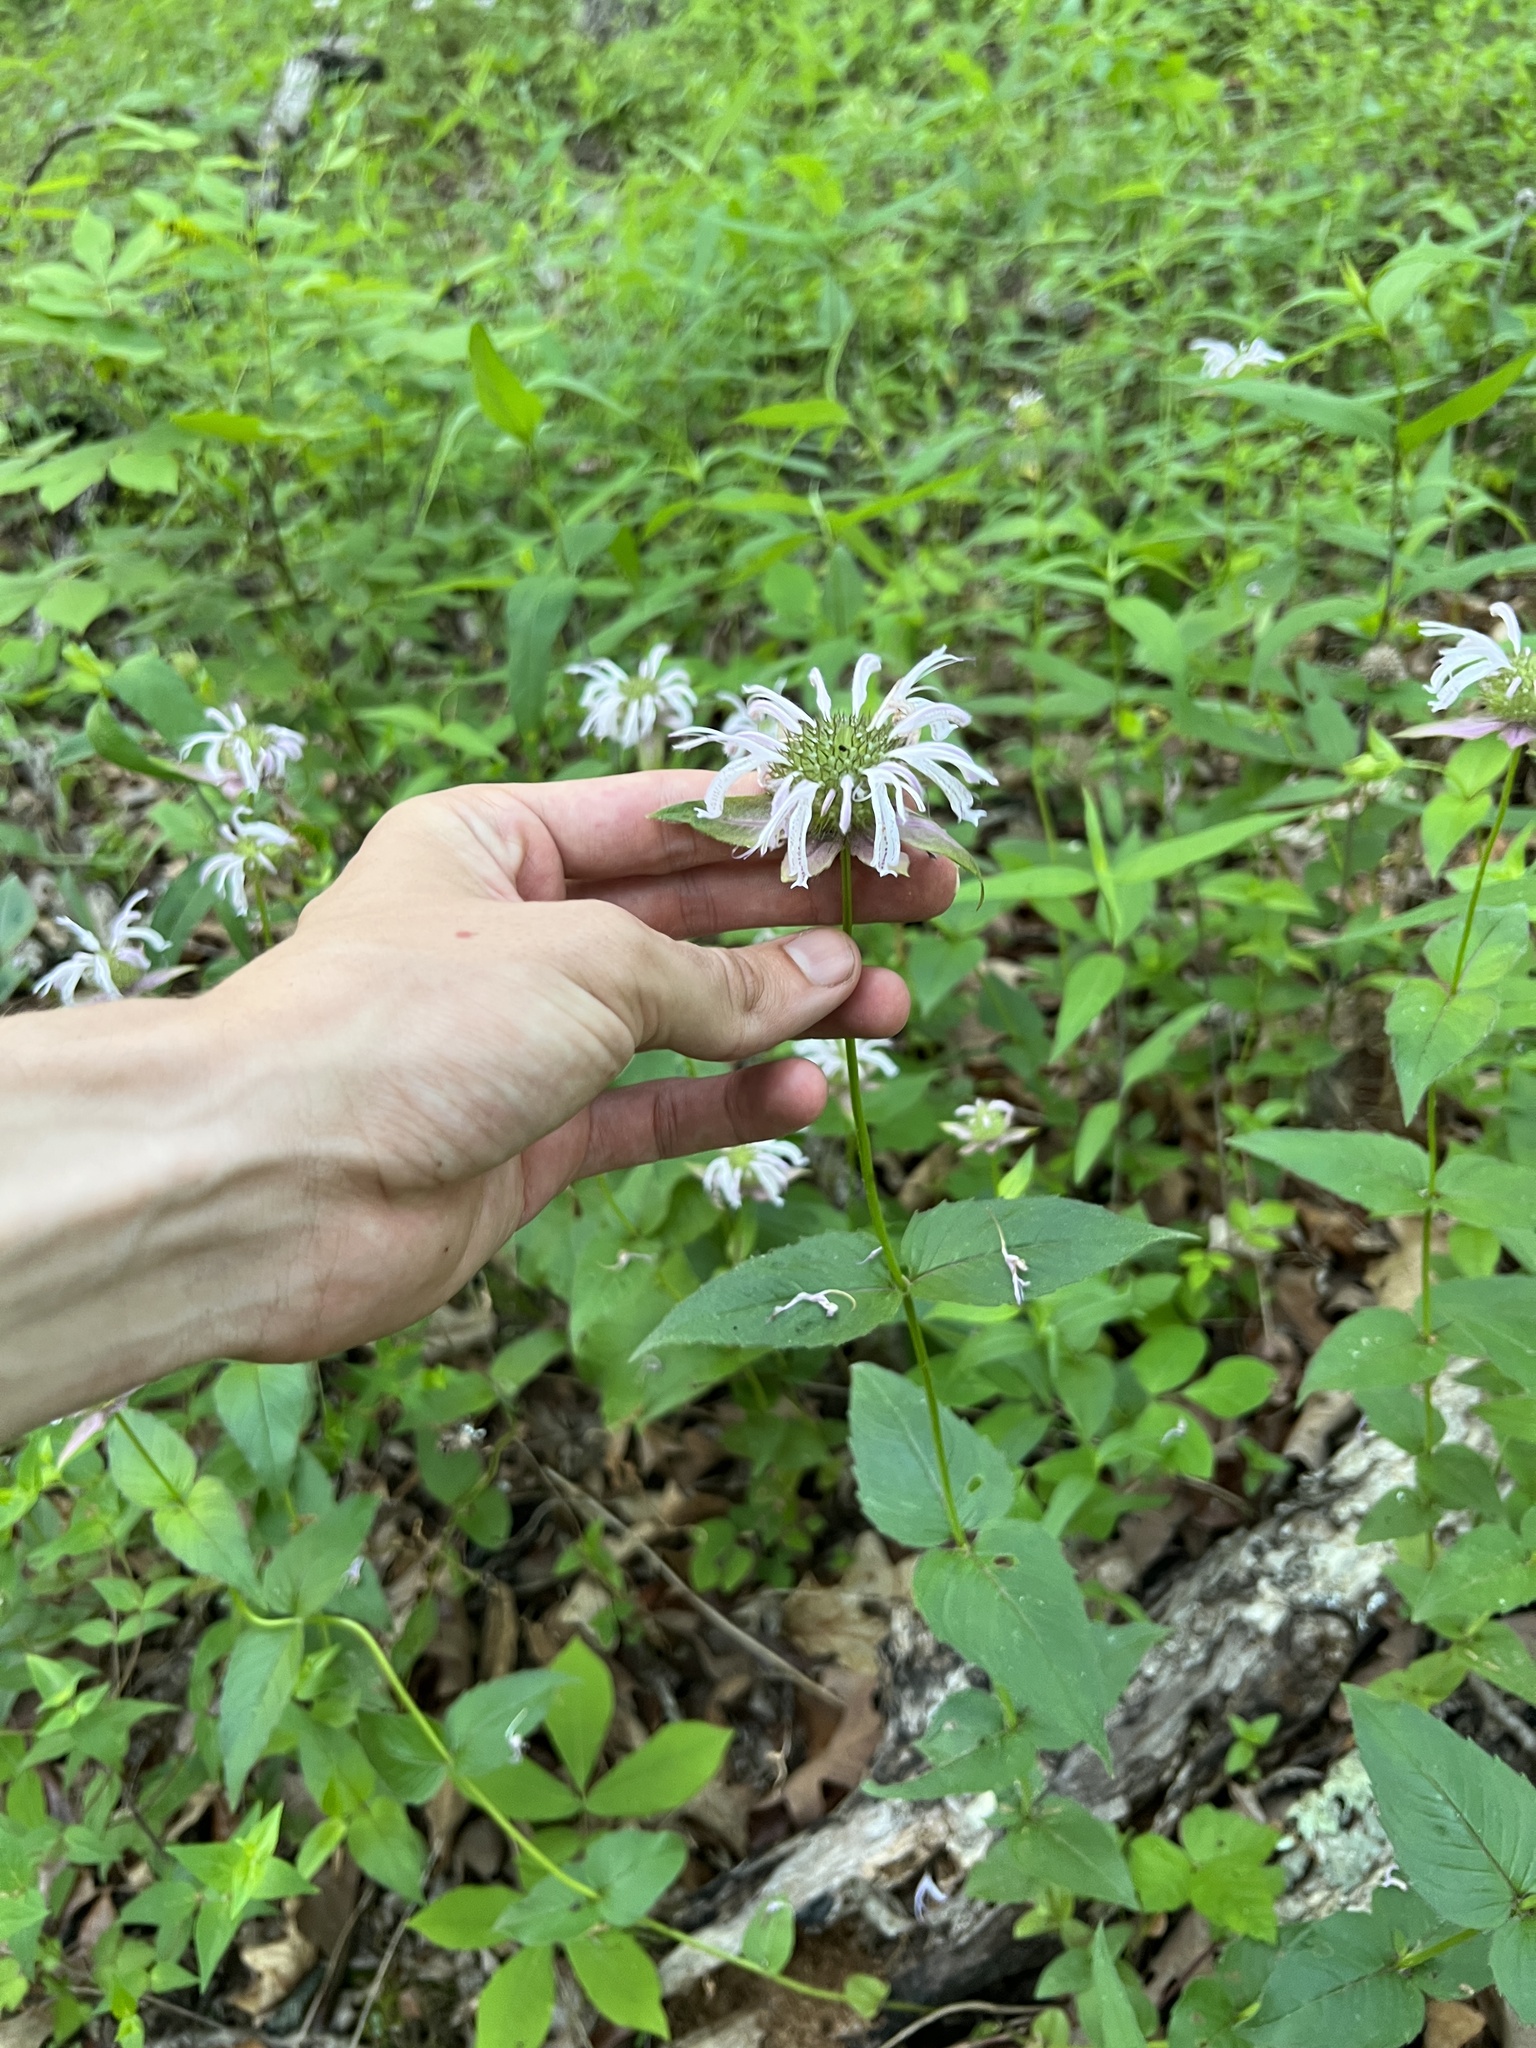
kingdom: Plantae
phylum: Tracheophyta
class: Magnoliopsida
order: Lamiales
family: Lamiaceae
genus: Monarda
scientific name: Monarda bradburiana
